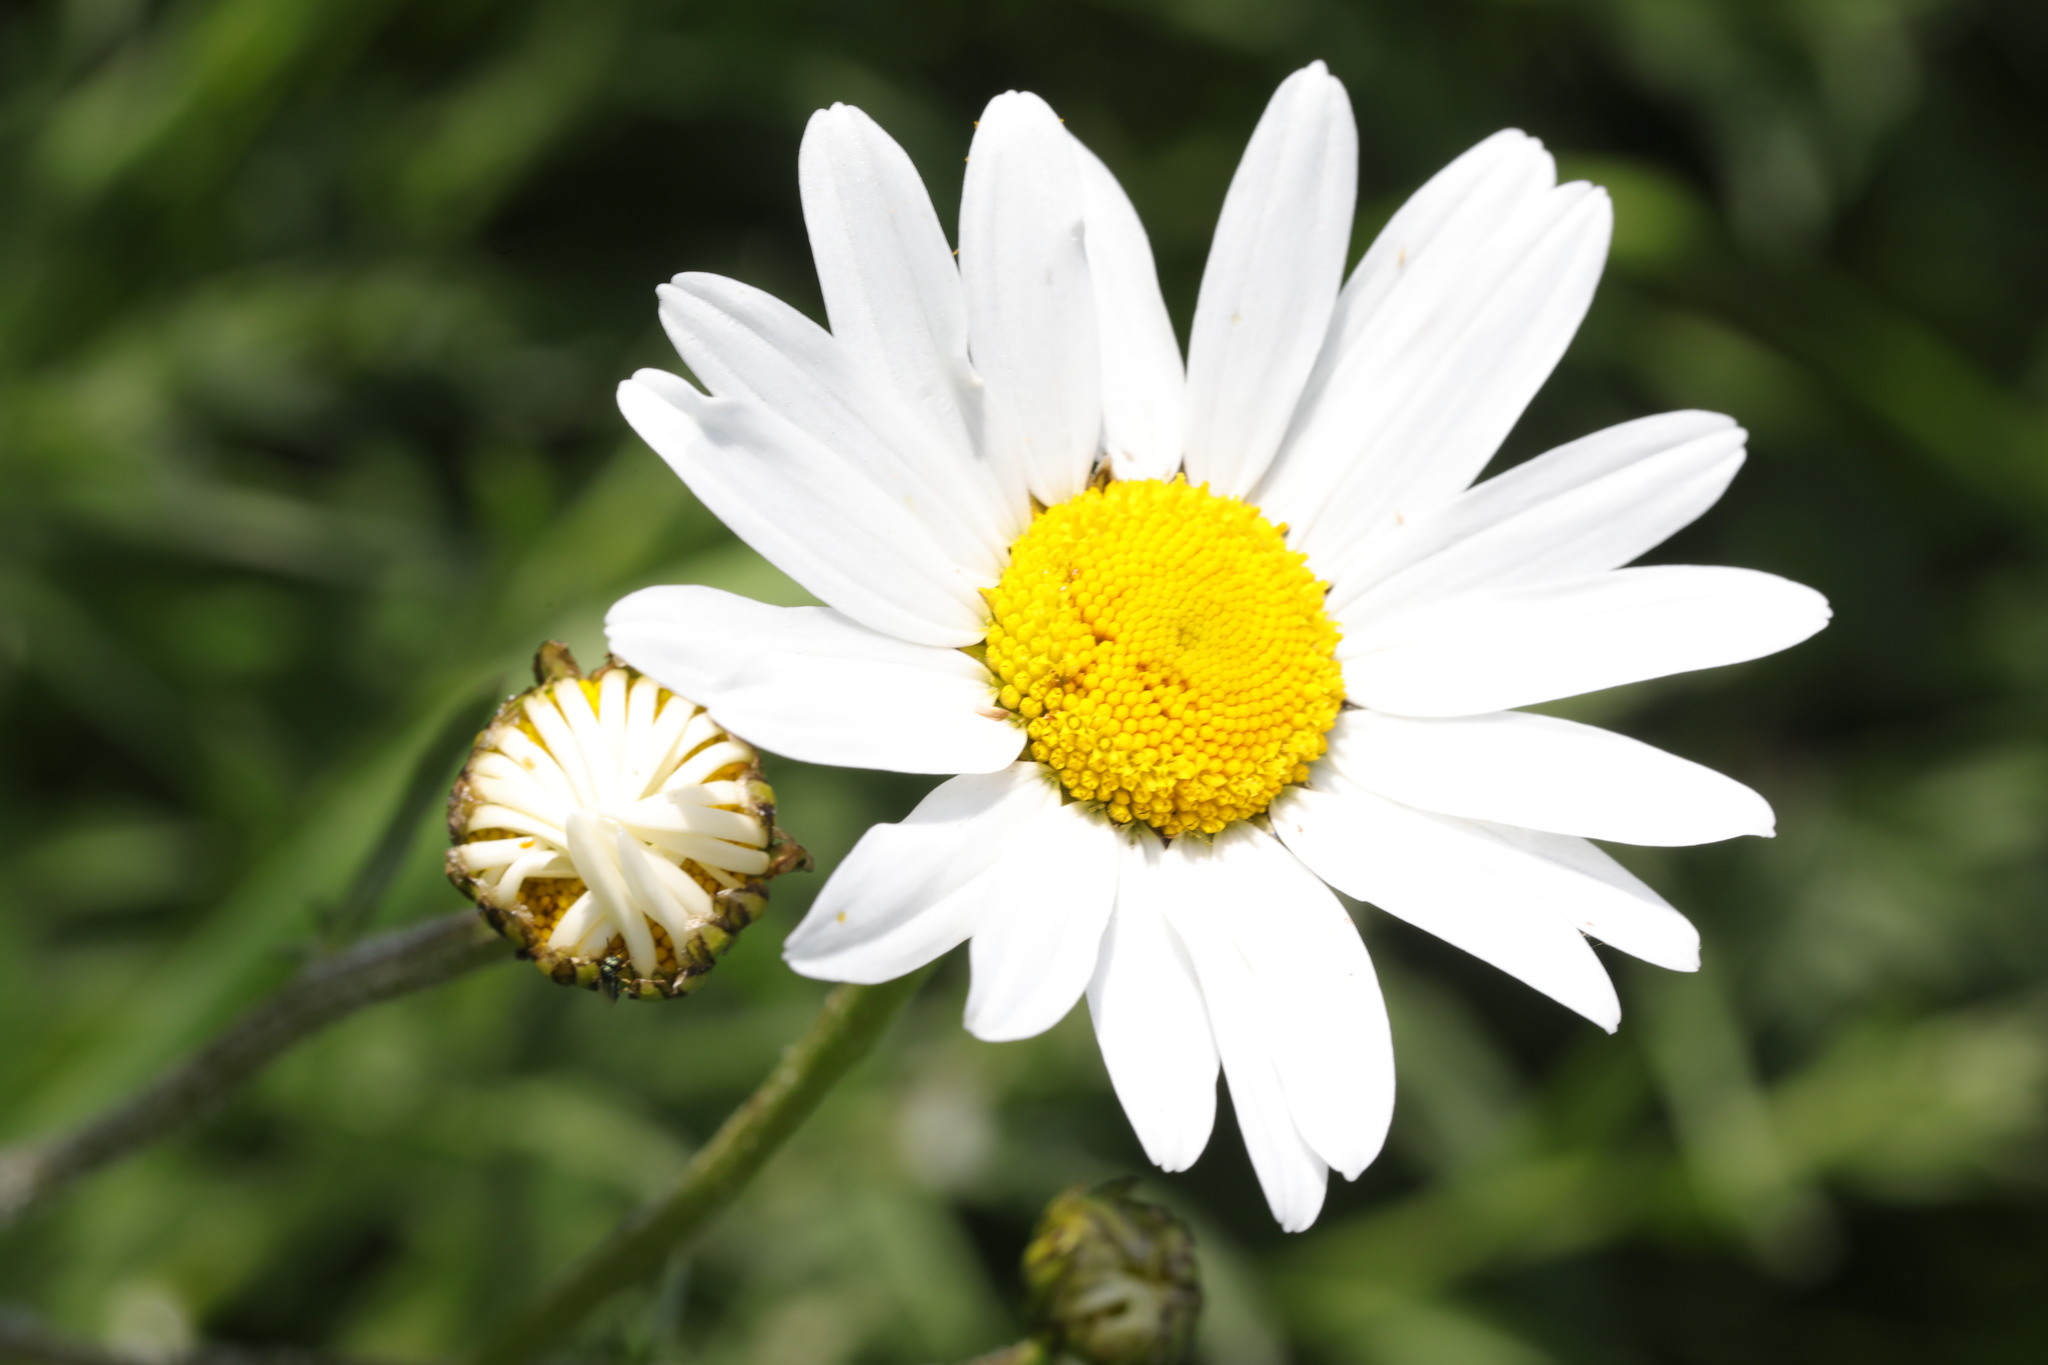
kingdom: Plantae
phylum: Tracheophyta
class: Magnoliopsida
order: Asterales
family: Asteraceae
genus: Leucanthemum
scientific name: Leucanthemum vulgare
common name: Oxeye daisy
